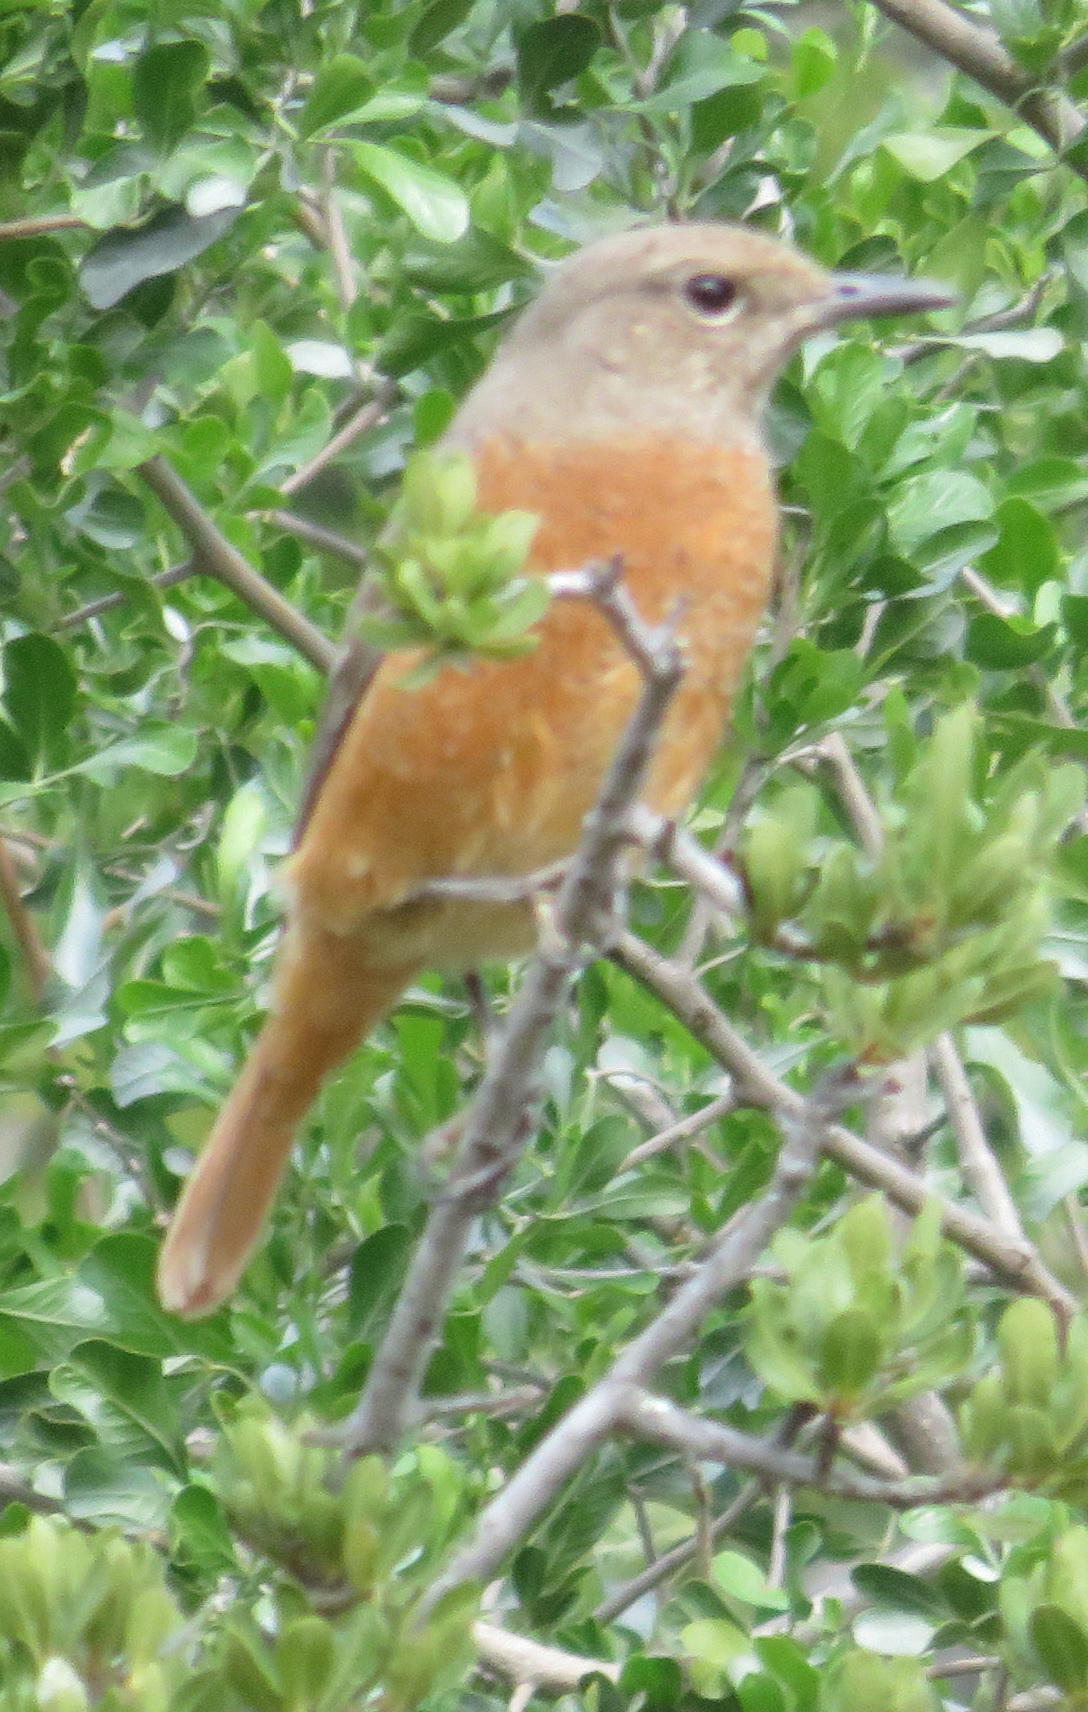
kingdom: Animalia
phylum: Chordata
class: Aves
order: Passeriformes
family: Muscicapidae
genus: Monticola
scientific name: Monticola rupestris
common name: Cape rock thrush
